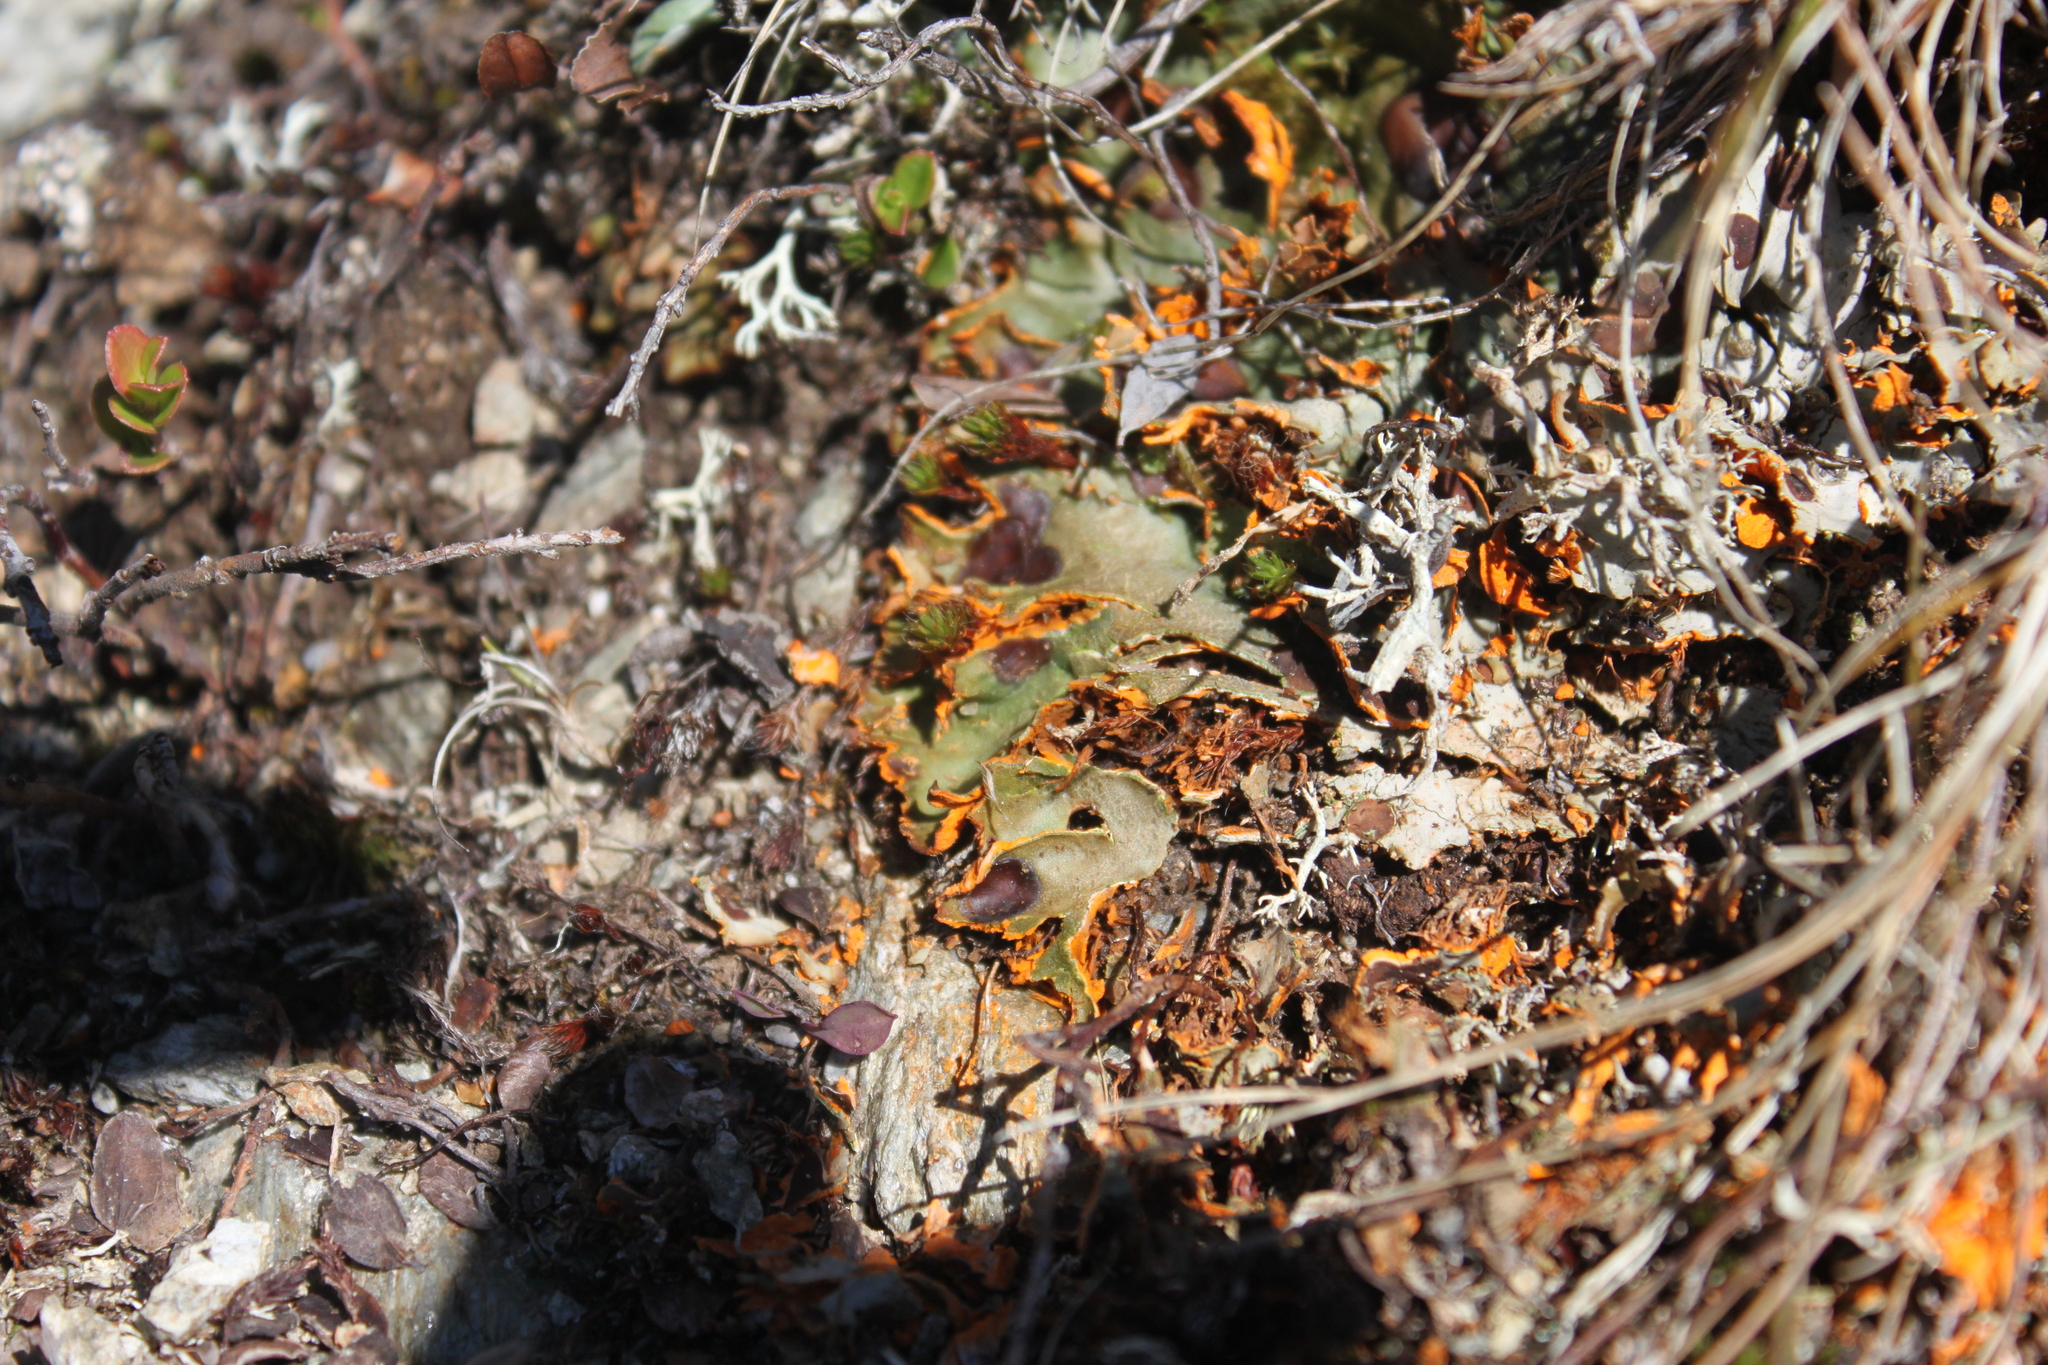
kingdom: Fungi
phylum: Ascomycota
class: Lecanoromycetes
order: Peltigerales
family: Peltigeraceae
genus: Solorina
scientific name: Solorina crocea
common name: Mountain saffron
